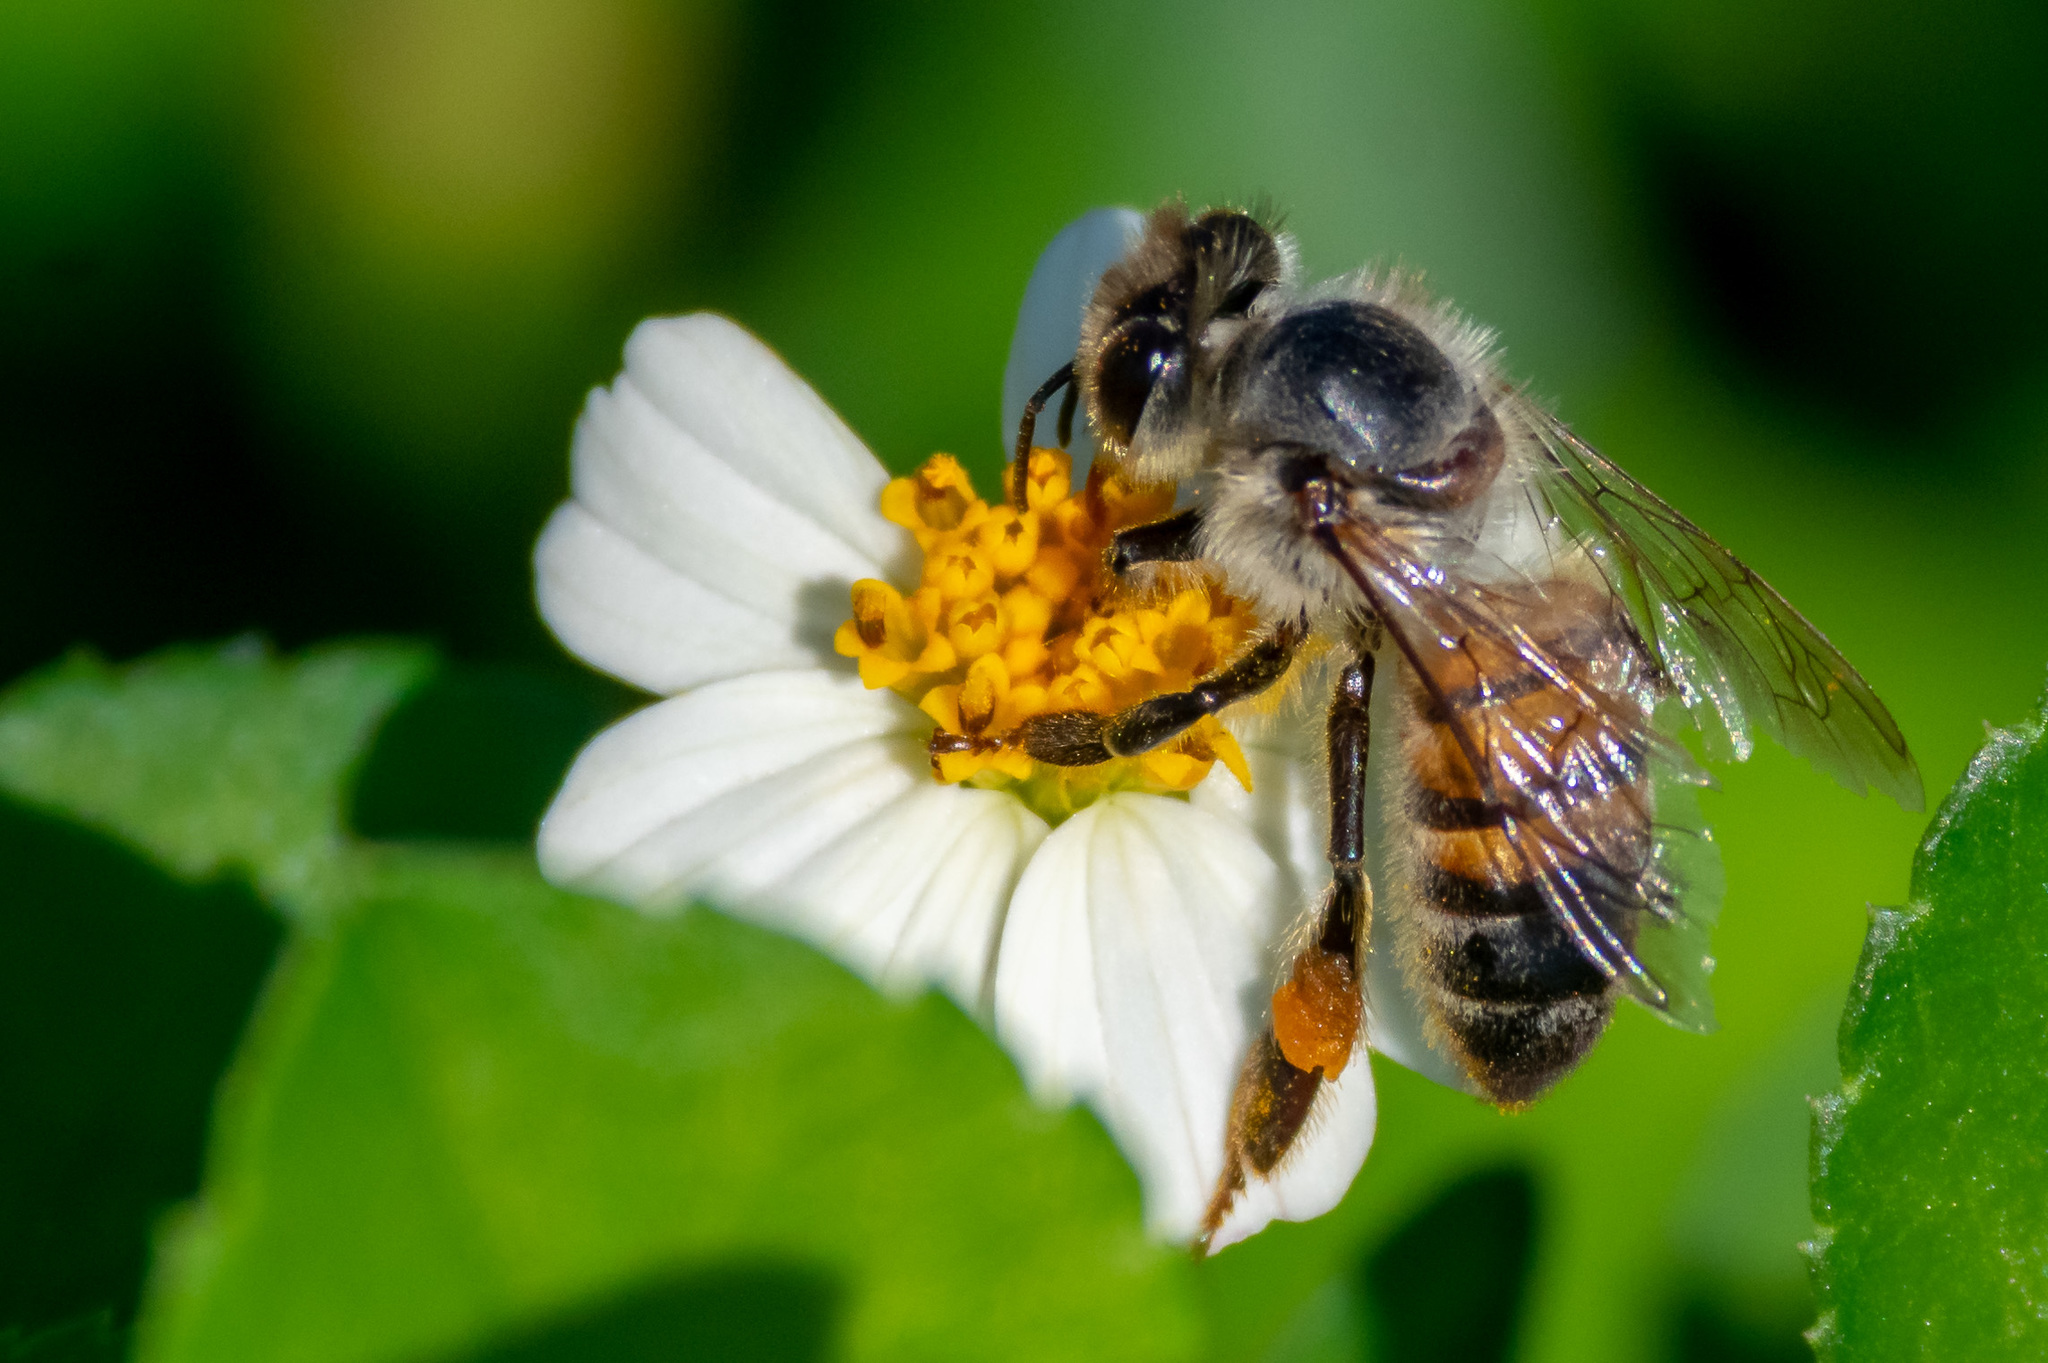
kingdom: Animalia
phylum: Arthropoda
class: Insecta
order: Hymenoptera
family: Apidae
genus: Apis
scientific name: Apis mellifera
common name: Honey bee
